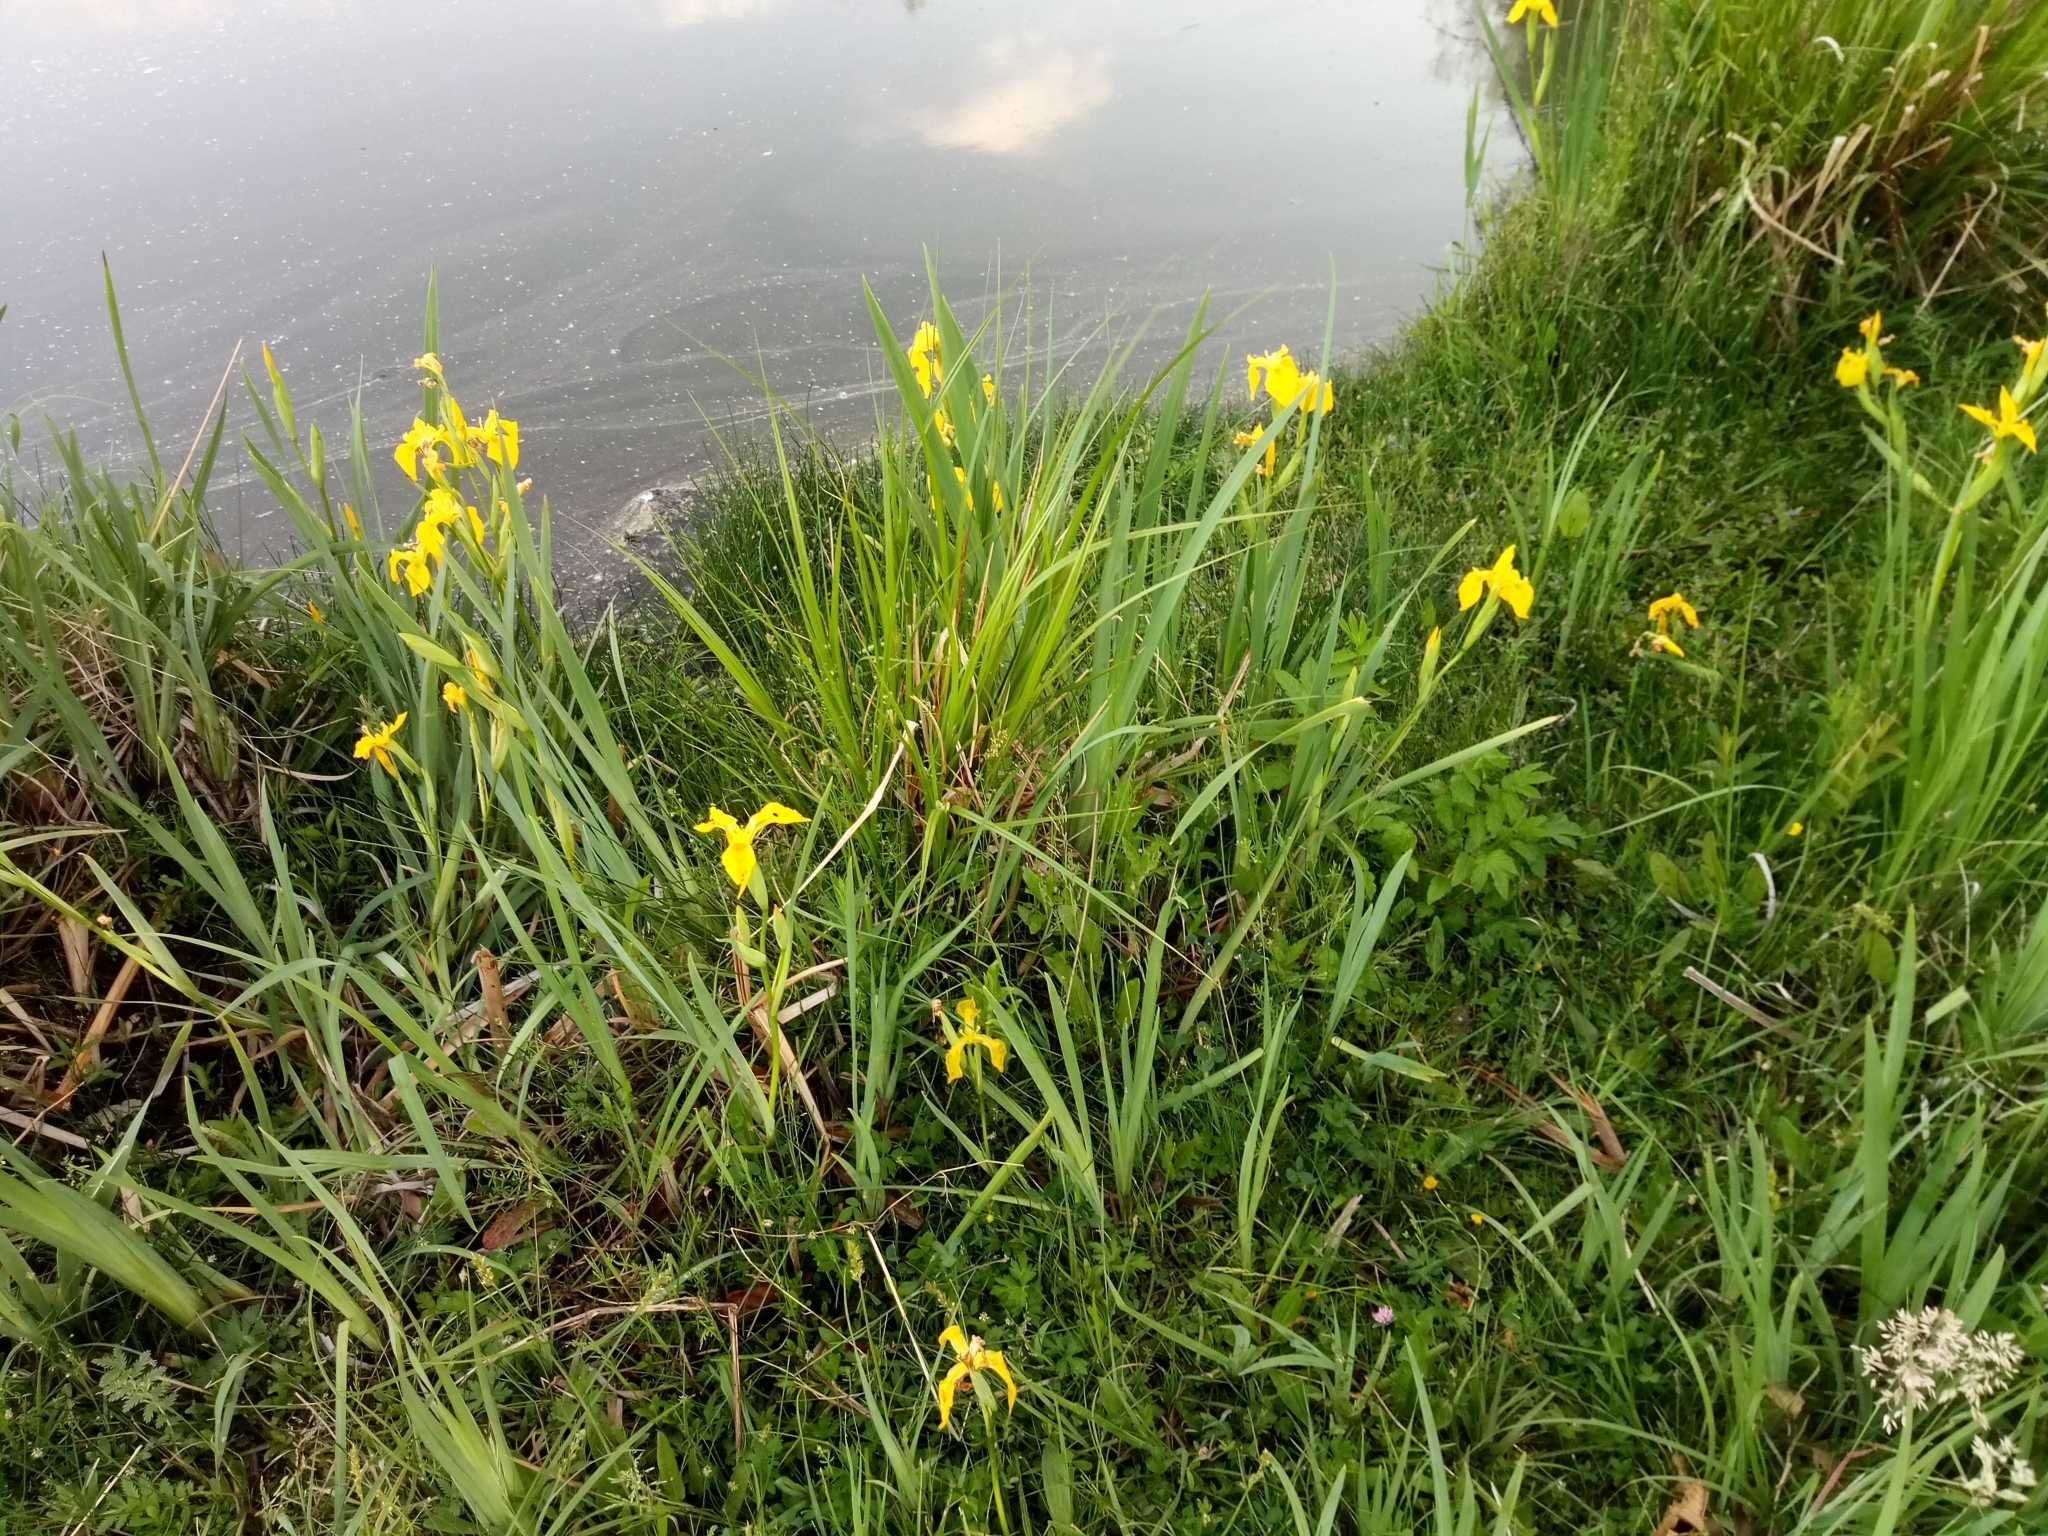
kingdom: Plantae
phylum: Tracheophyta
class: Liliopsida
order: Asparagales
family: Iridaceae
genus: Iris
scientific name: Iris pseudacorus
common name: Yellow flag
